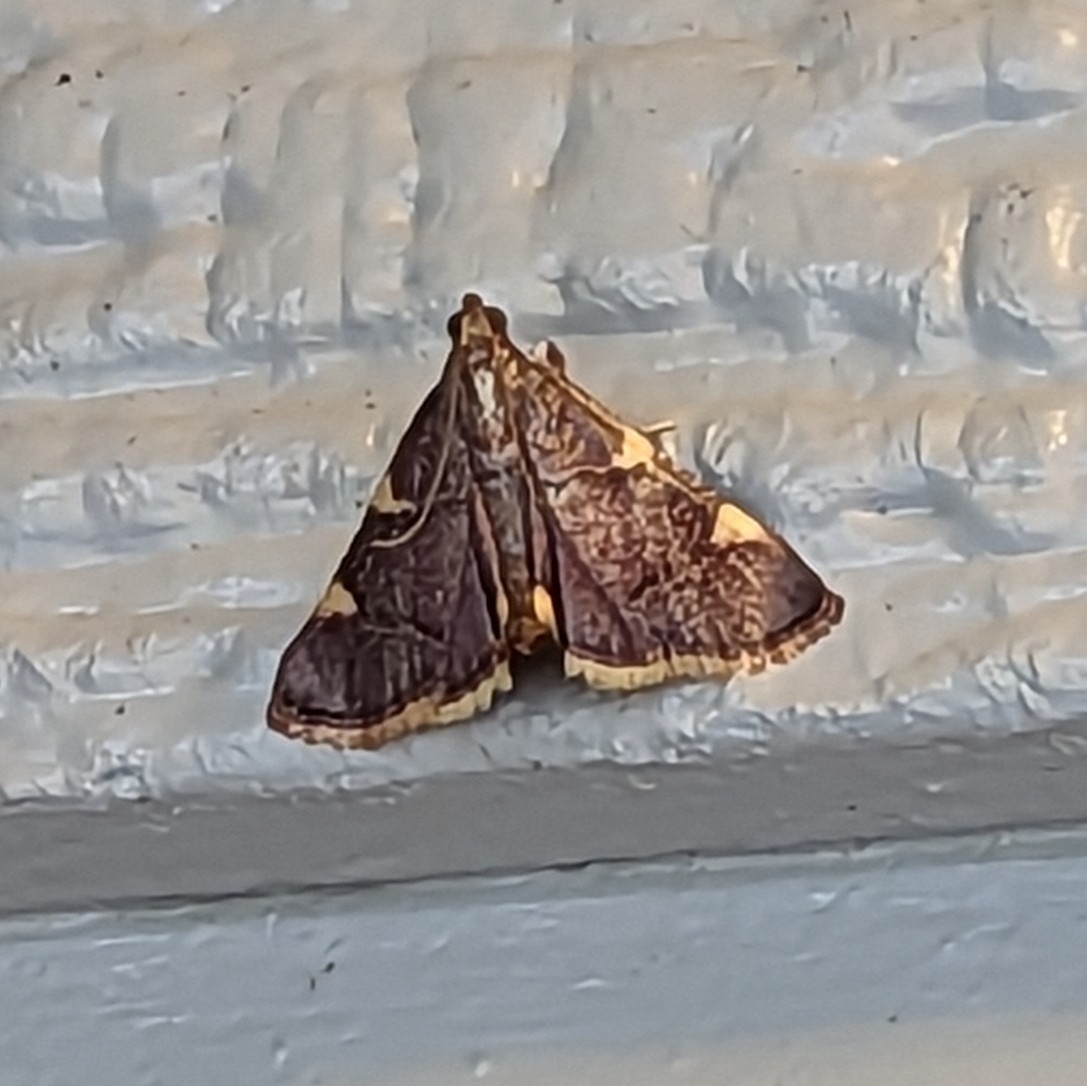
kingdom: Animalia
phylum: Arthropoda
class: Insecta
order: Lepidoptera
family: Pyralidae
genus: Hypsopygia
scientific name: Hypsopygia olinalis
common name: Yellow-fringed dolichomia moth
